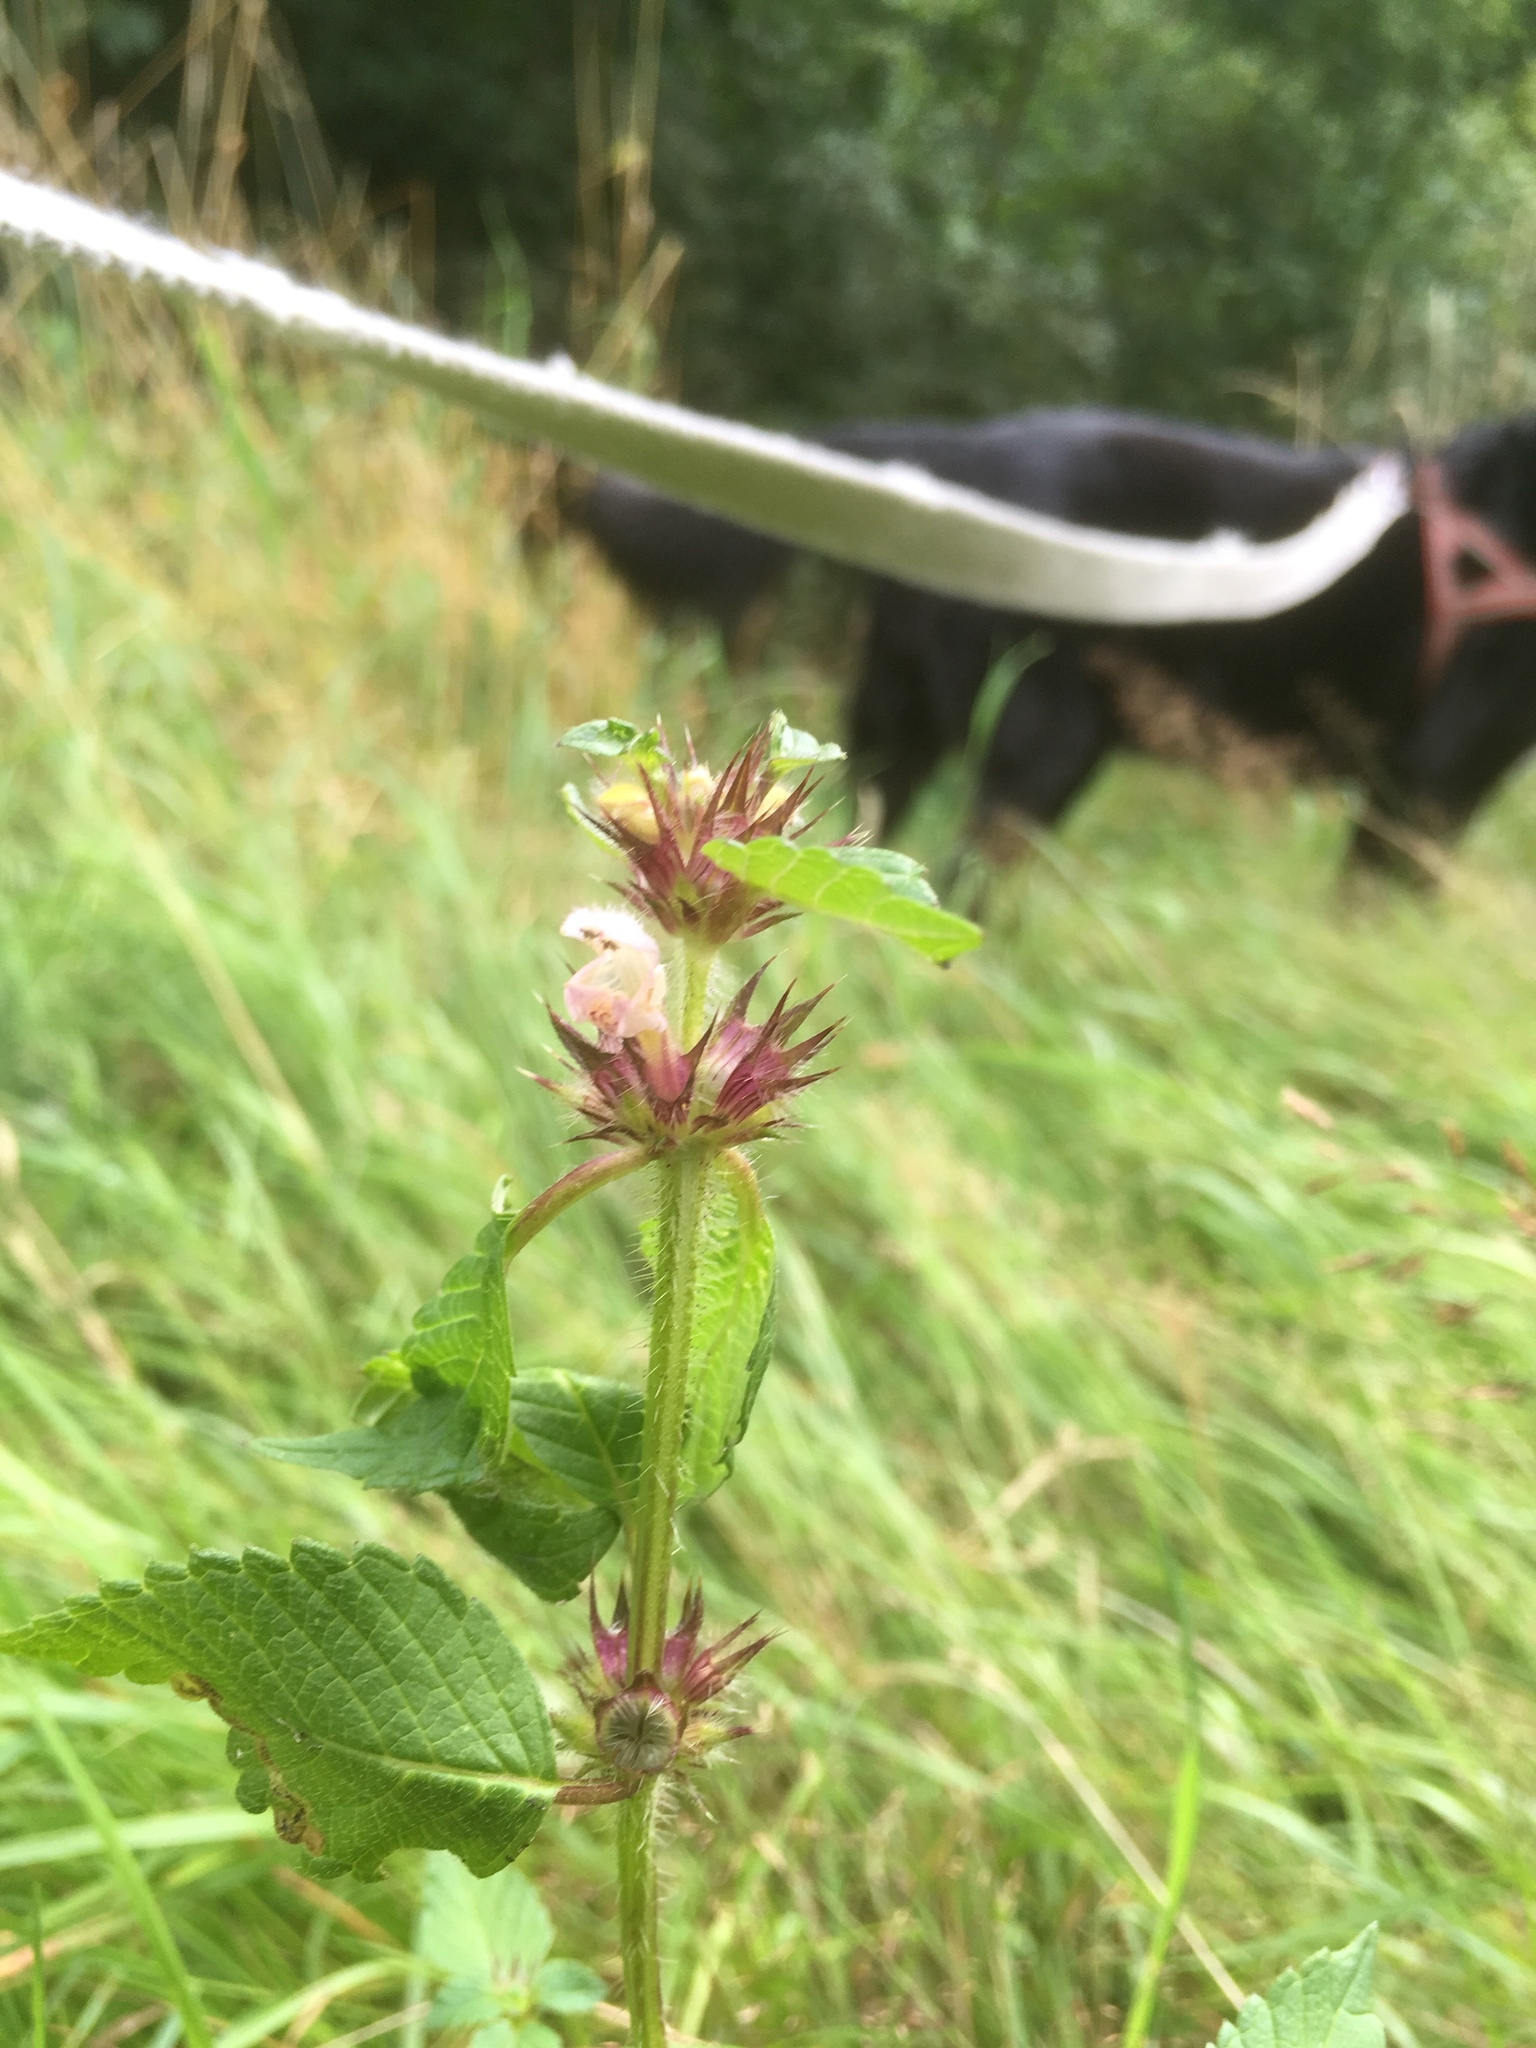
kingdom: Plantae
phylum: Tracheophyta
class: Magnoliopsida
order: Lamiales
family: Lamiaceae
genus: Galeopsis
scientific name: Galeopsis tetrahit
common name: Common hemp-nettle
